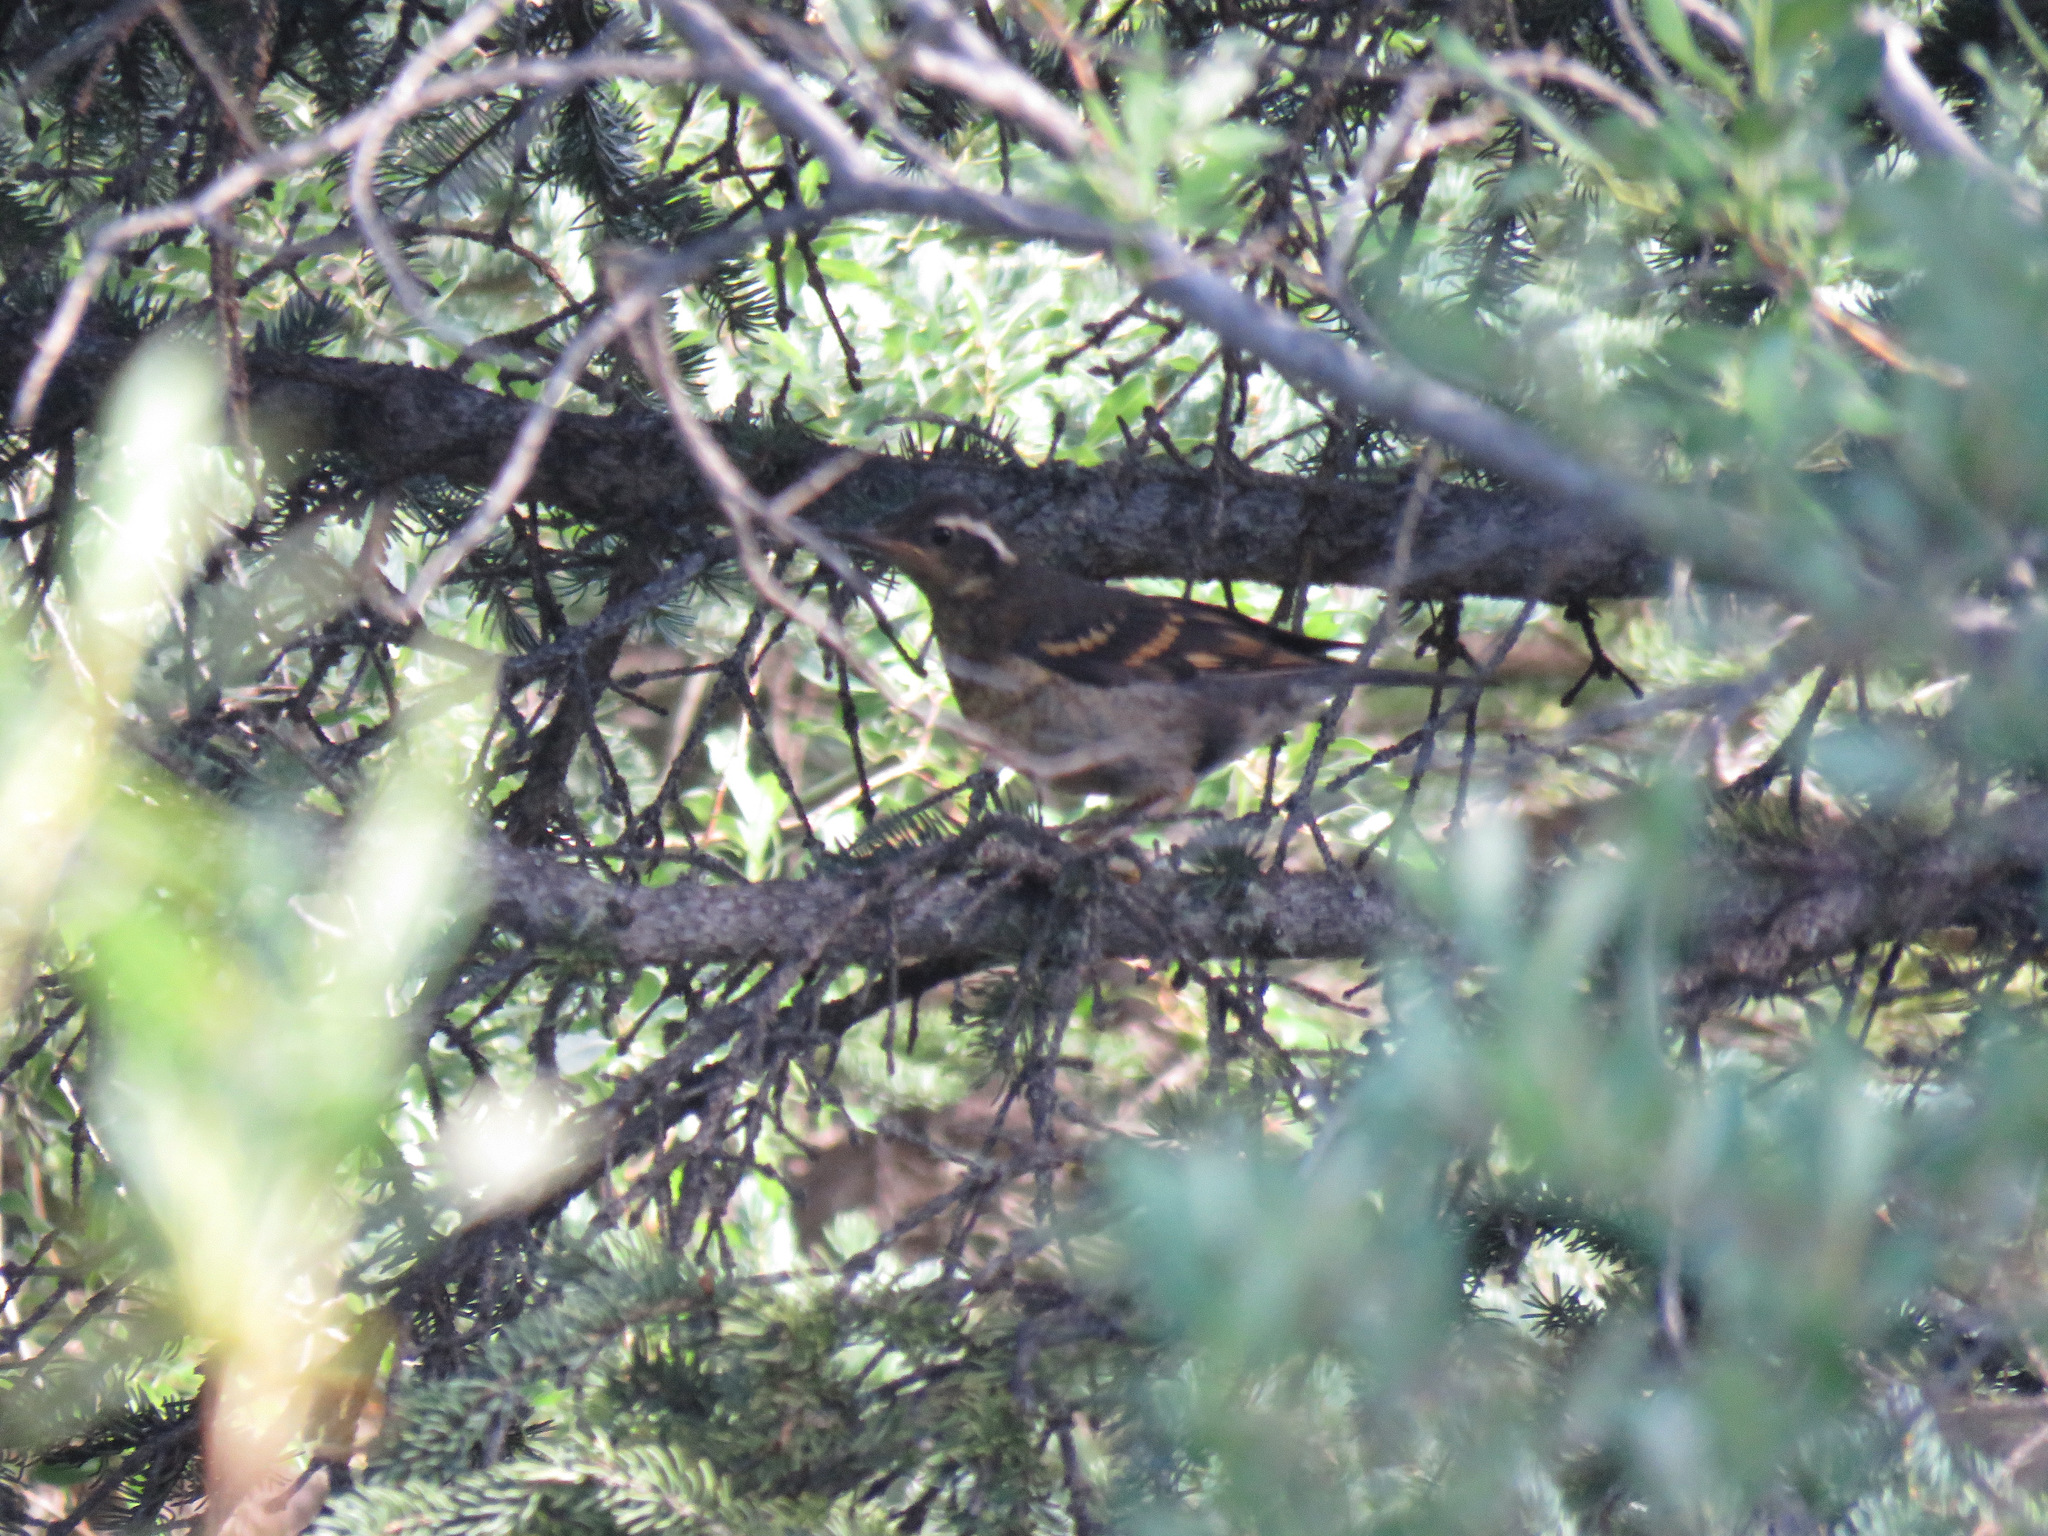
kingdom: Animalia
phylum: Chordata
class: Aves
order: Passeriformes
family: Turdidae
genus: Ixoreus
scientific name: Ixoreus naevius
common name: Varied thrush
